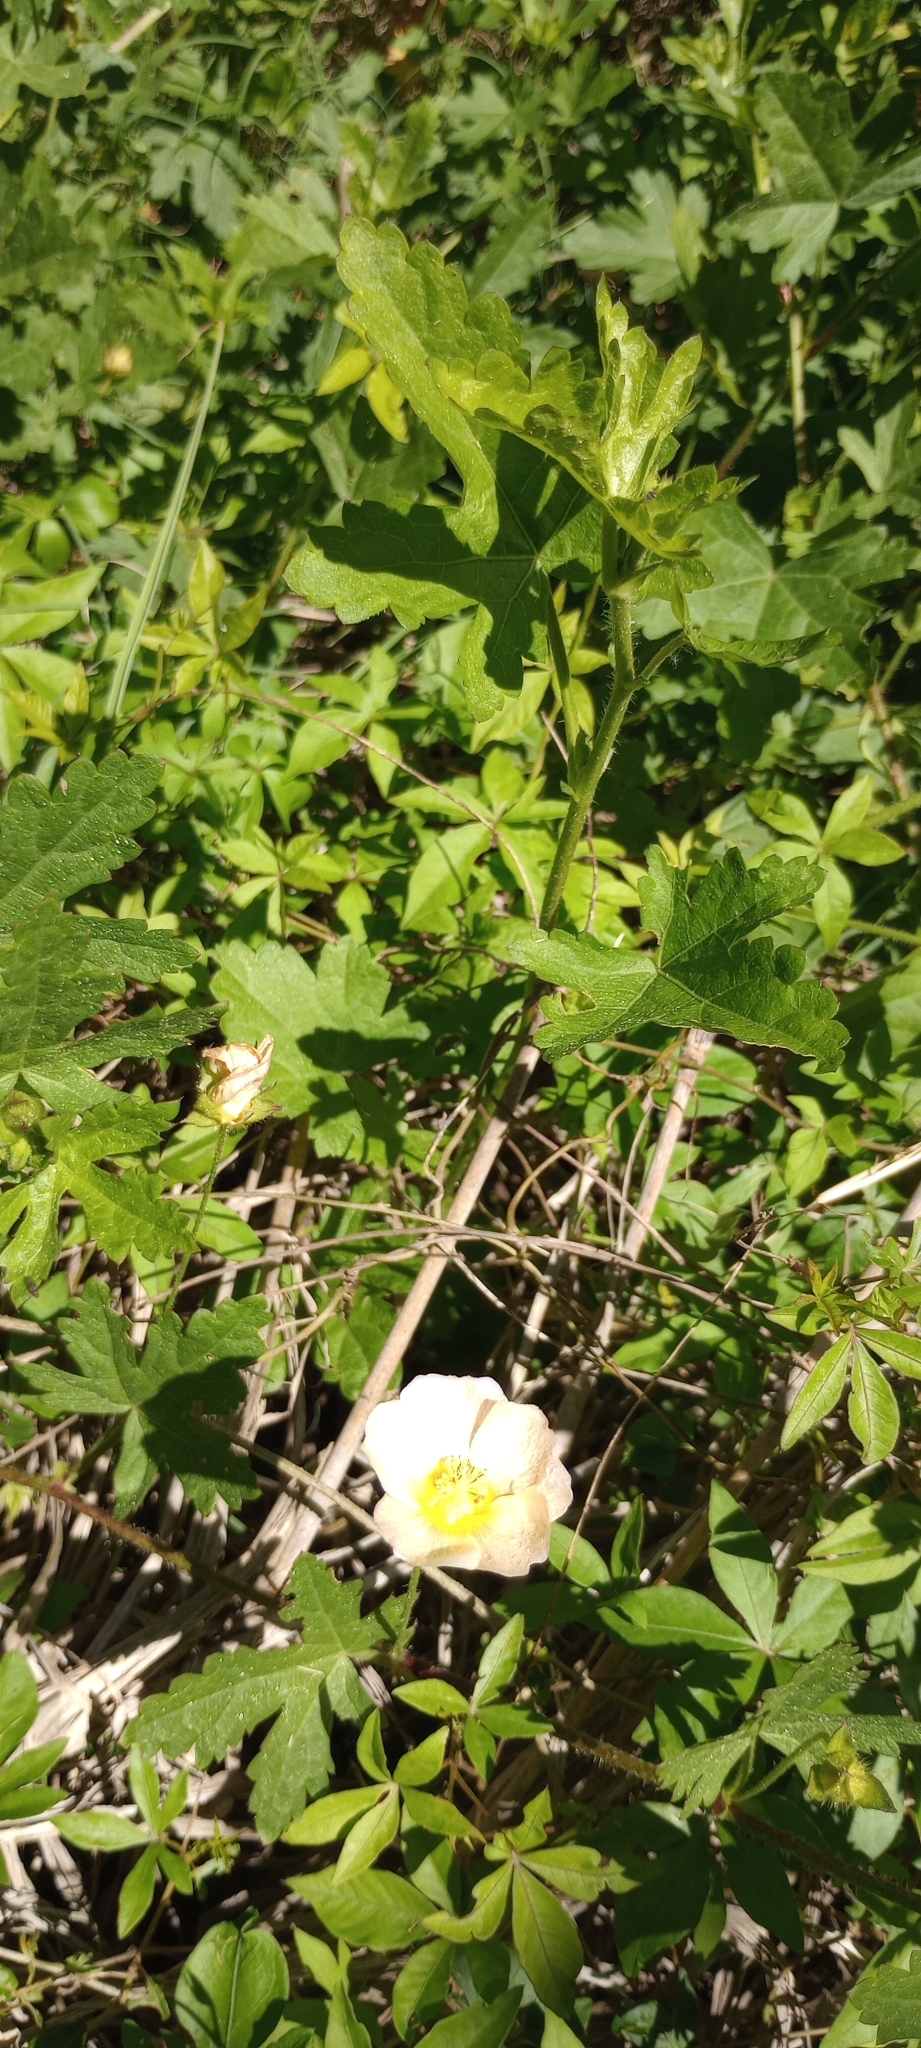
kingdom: Plantae
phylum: Tracheophyta
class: Magnoliopsida
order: Malvales
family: Malvaceae
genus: Modiolastrum
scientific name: Modiolastrum malvifolium
